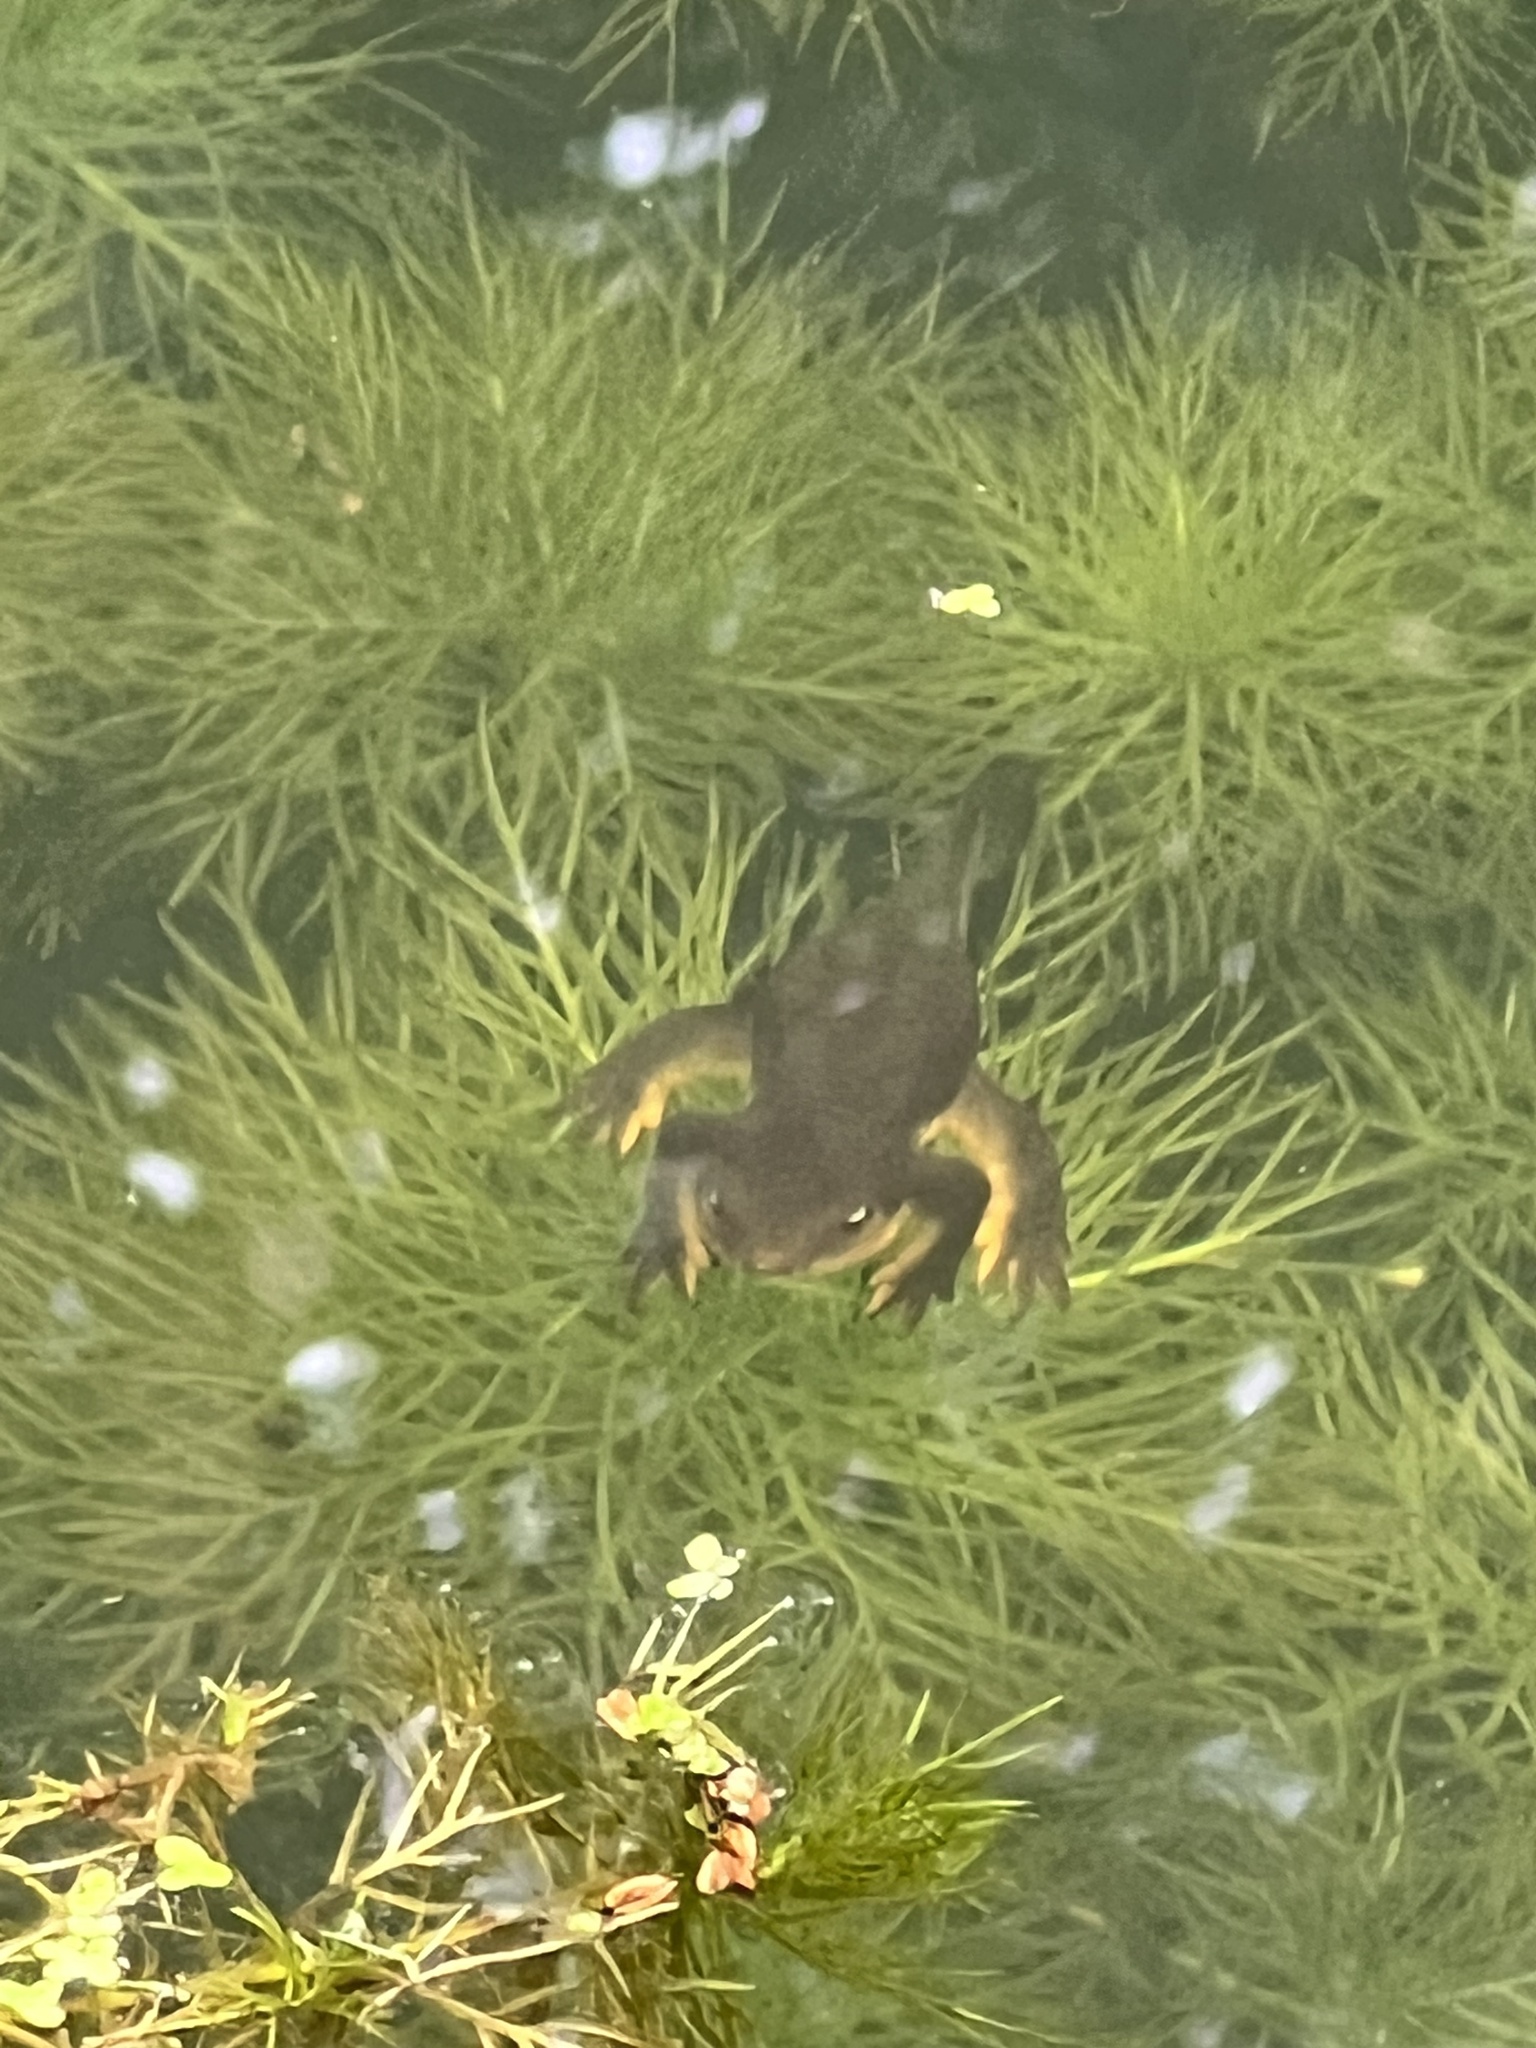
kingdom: Animalia
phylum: Chordata
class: Amphibia
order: Caudata
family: Salamandridae
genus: Taricha
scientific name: Taricha granulosa
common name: Roughskin newt
